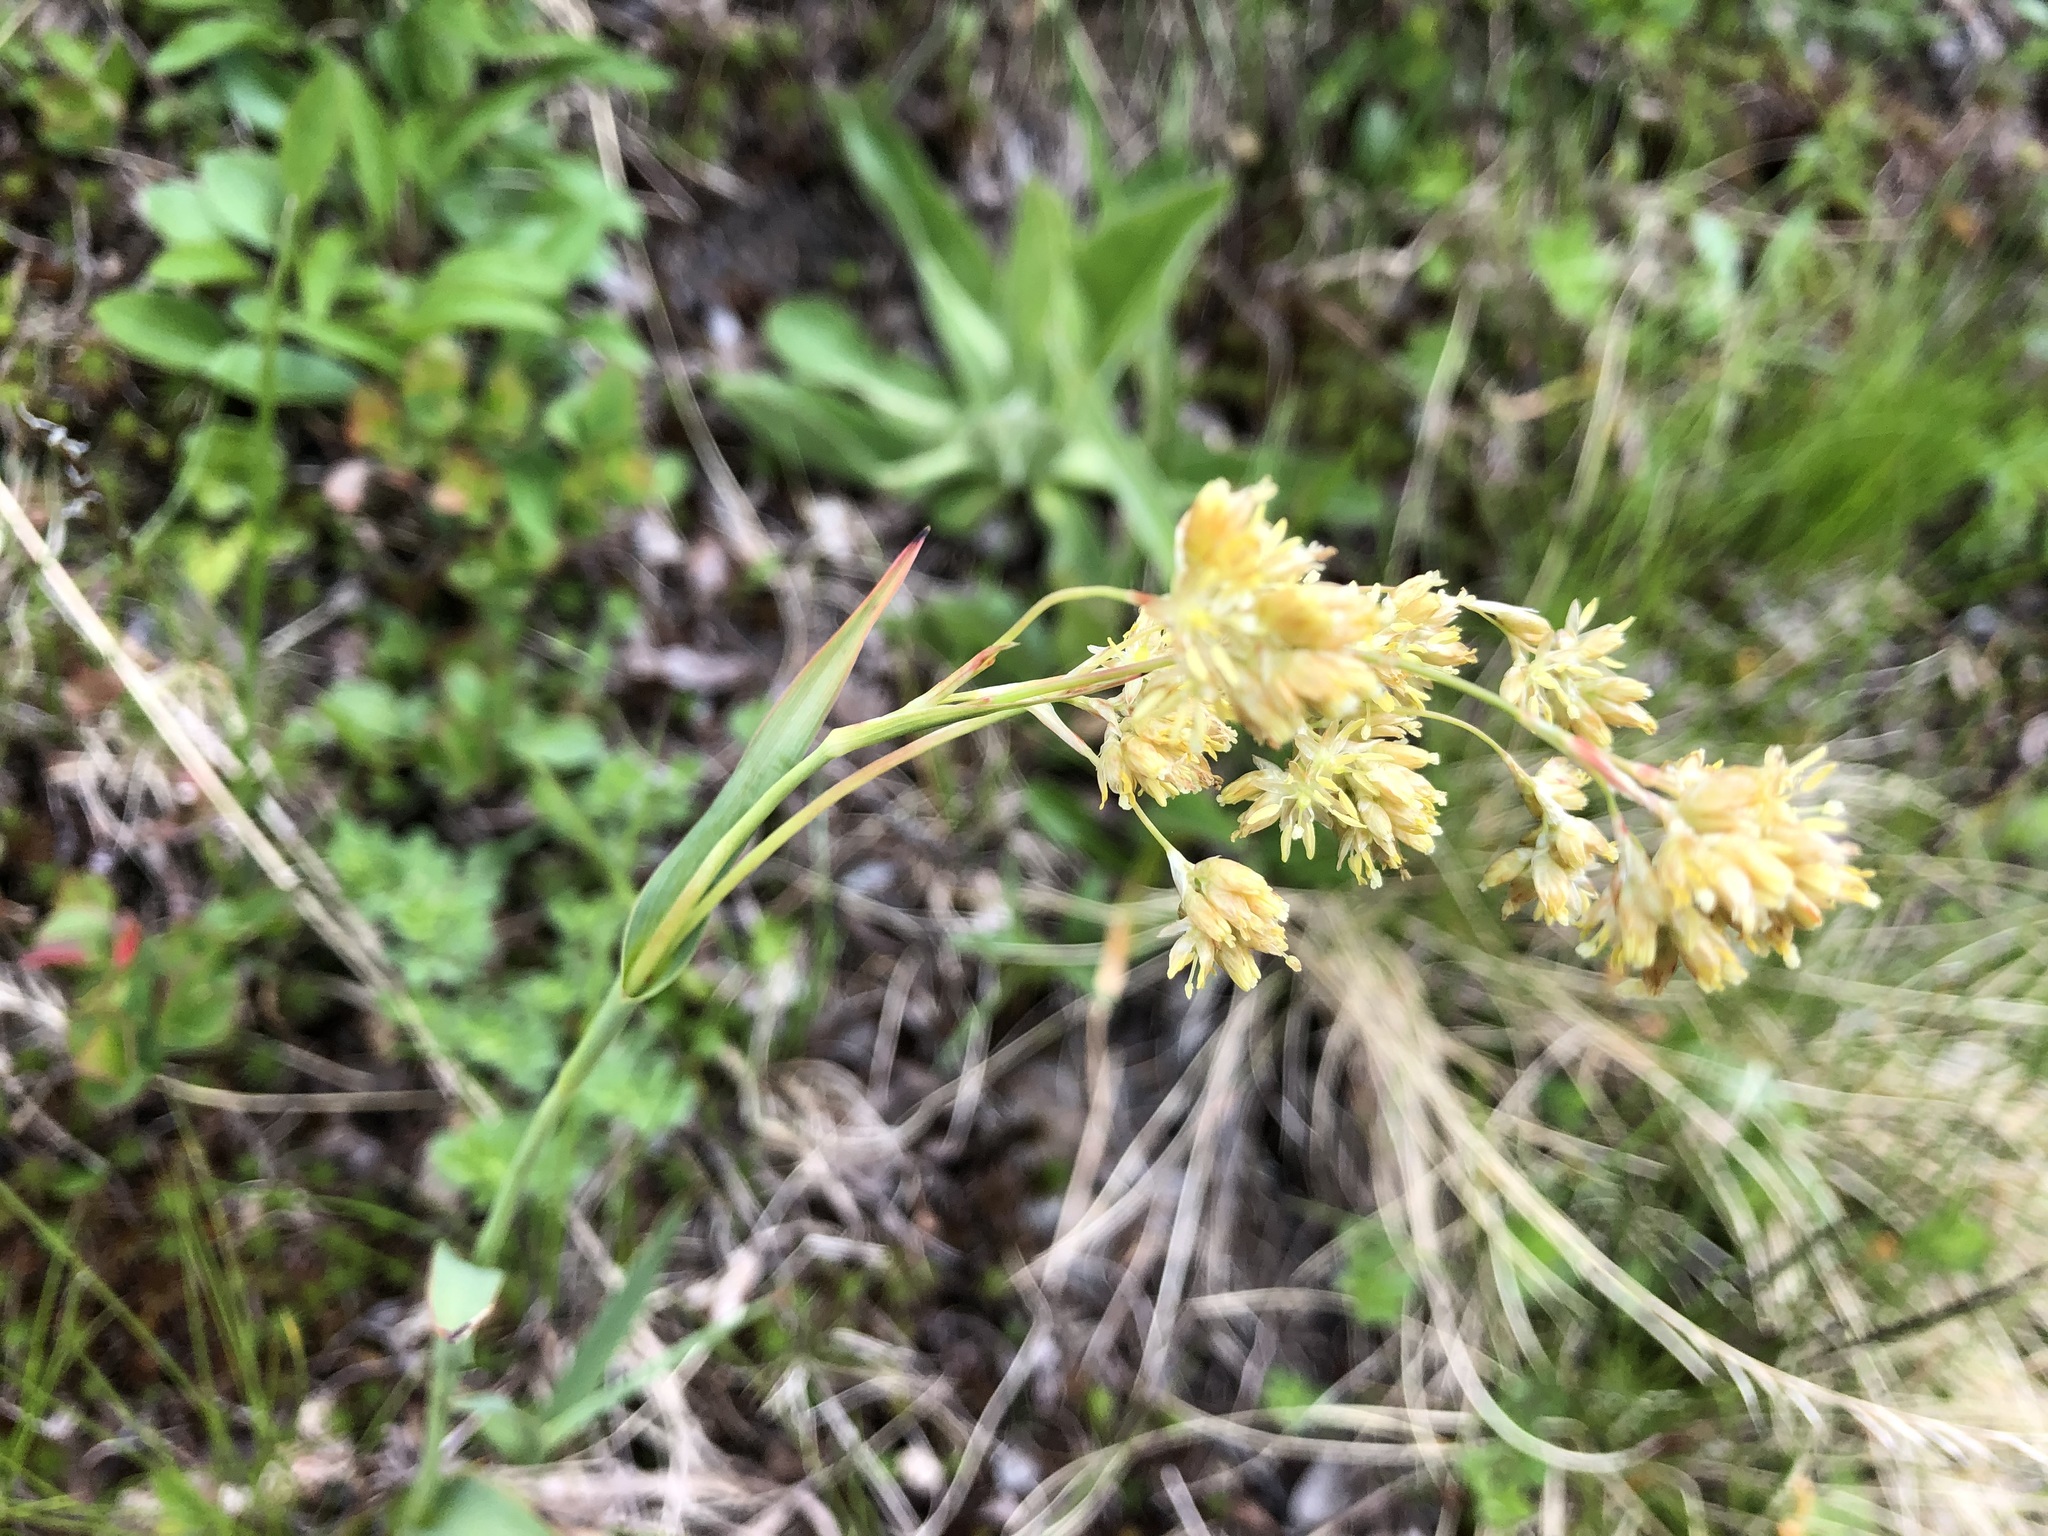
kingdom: Plantae
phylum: Tracheophyta
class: Liliopsida
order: Poales
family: Juncaceae
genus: Luzula
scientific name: Luzula lutea
